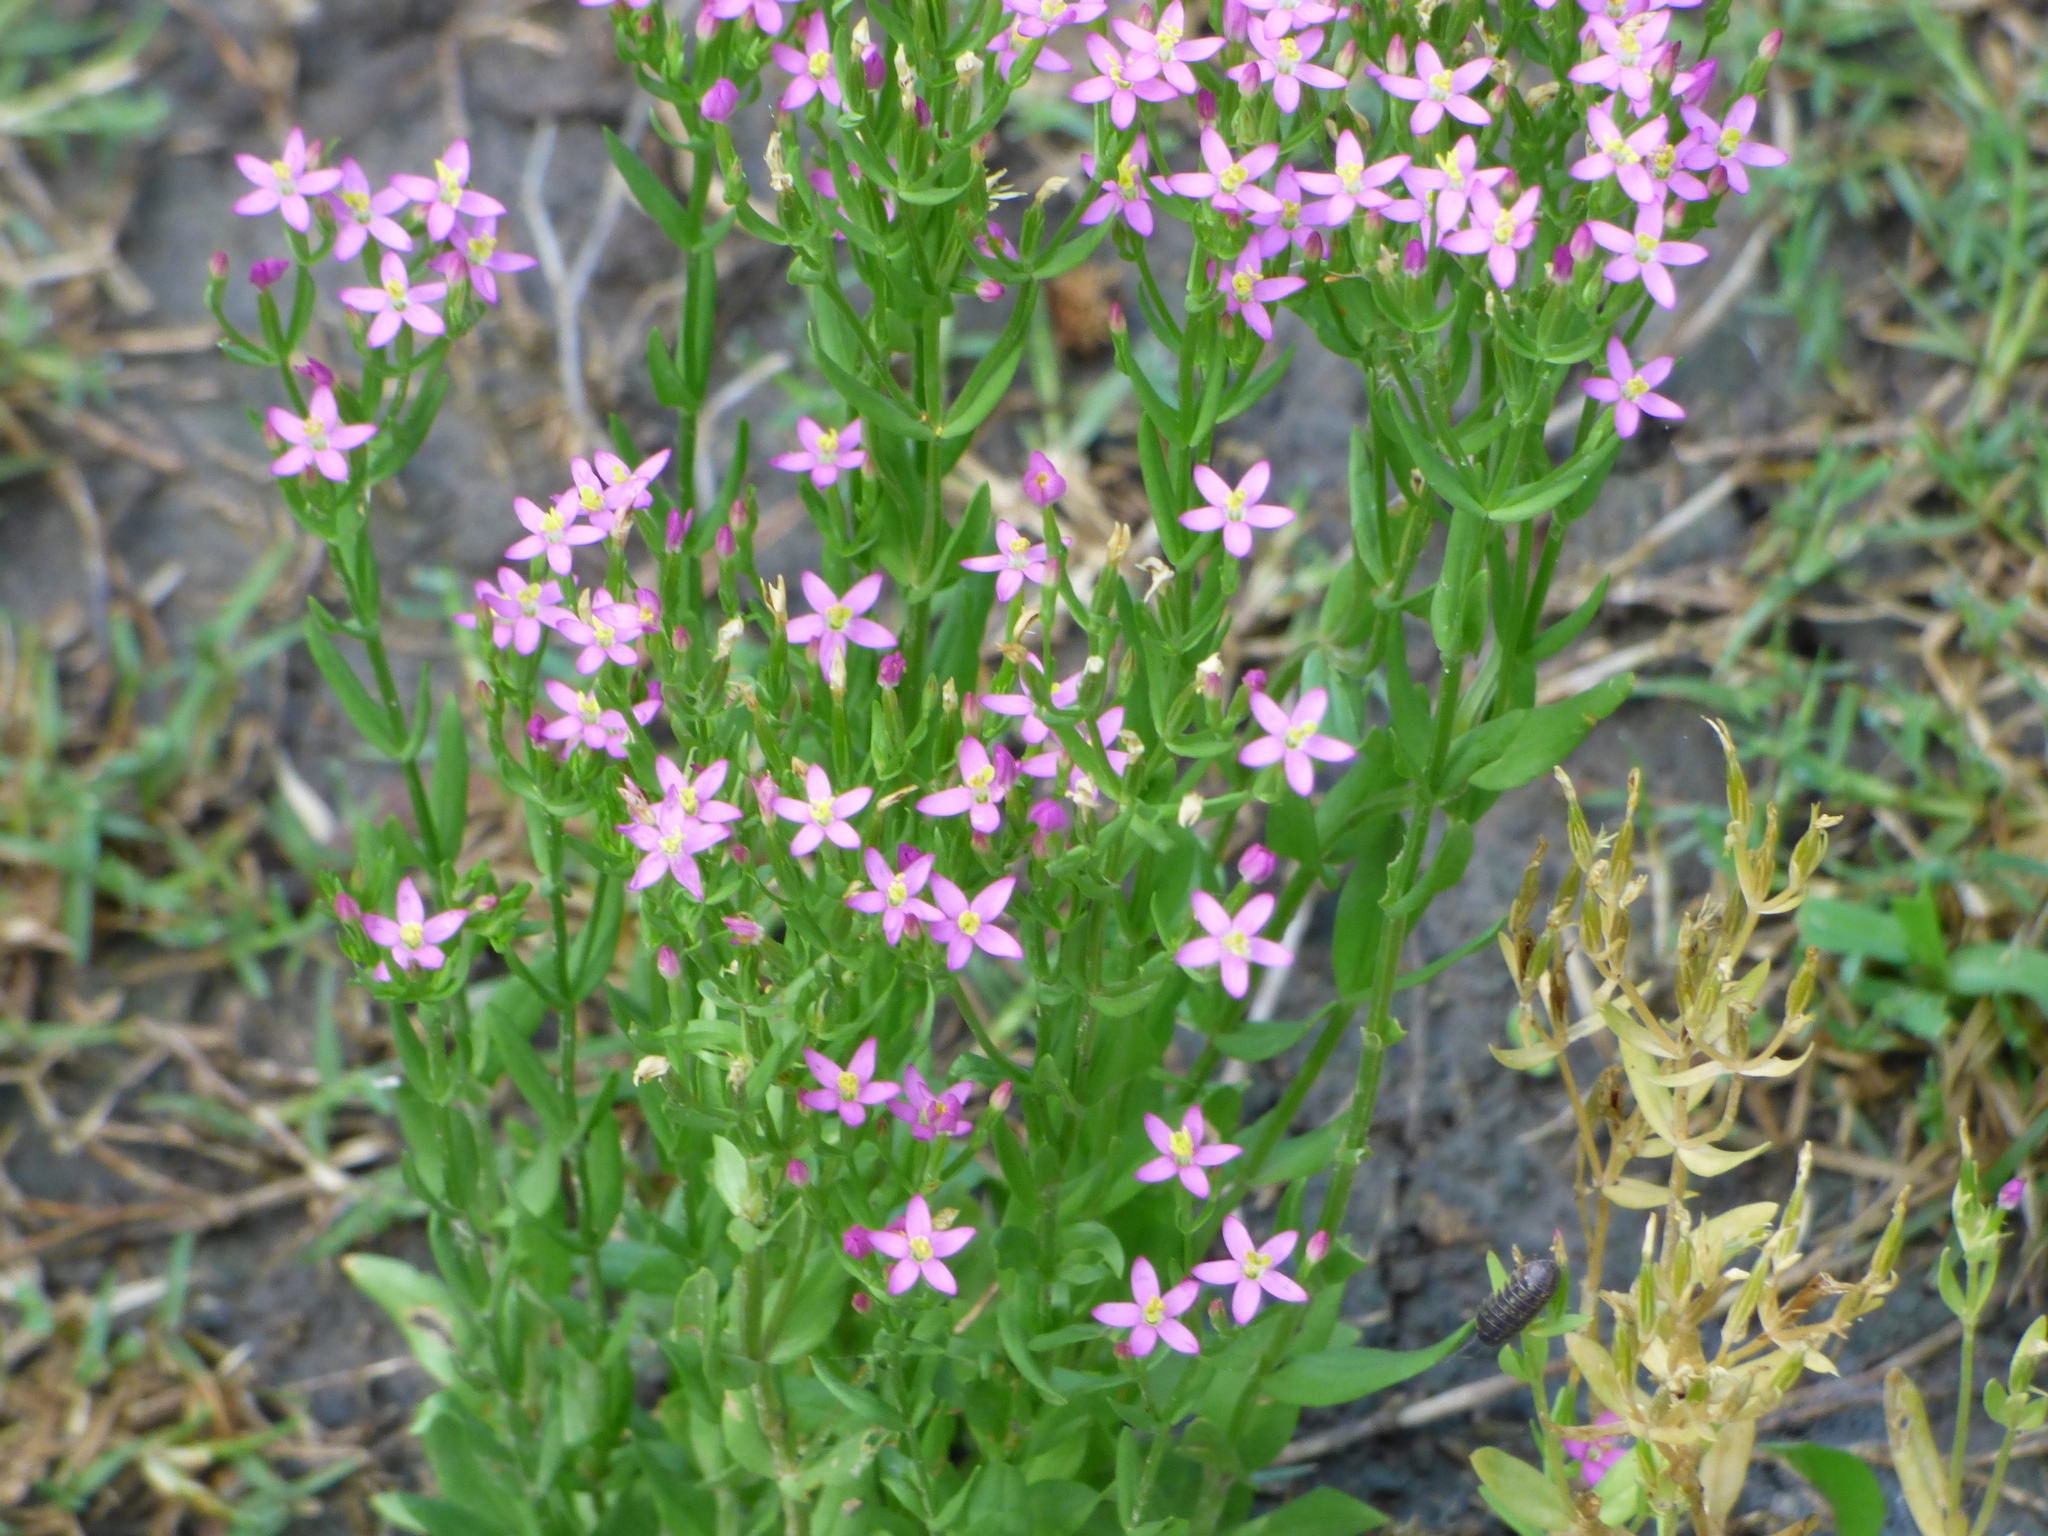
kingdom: Plantae
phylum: Tracheophyta
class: Magnoliopsida
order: Gentianales
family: Gentianaceae
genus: Centaurium
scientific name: Centaurium pulchellum
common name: Lesser centaury
